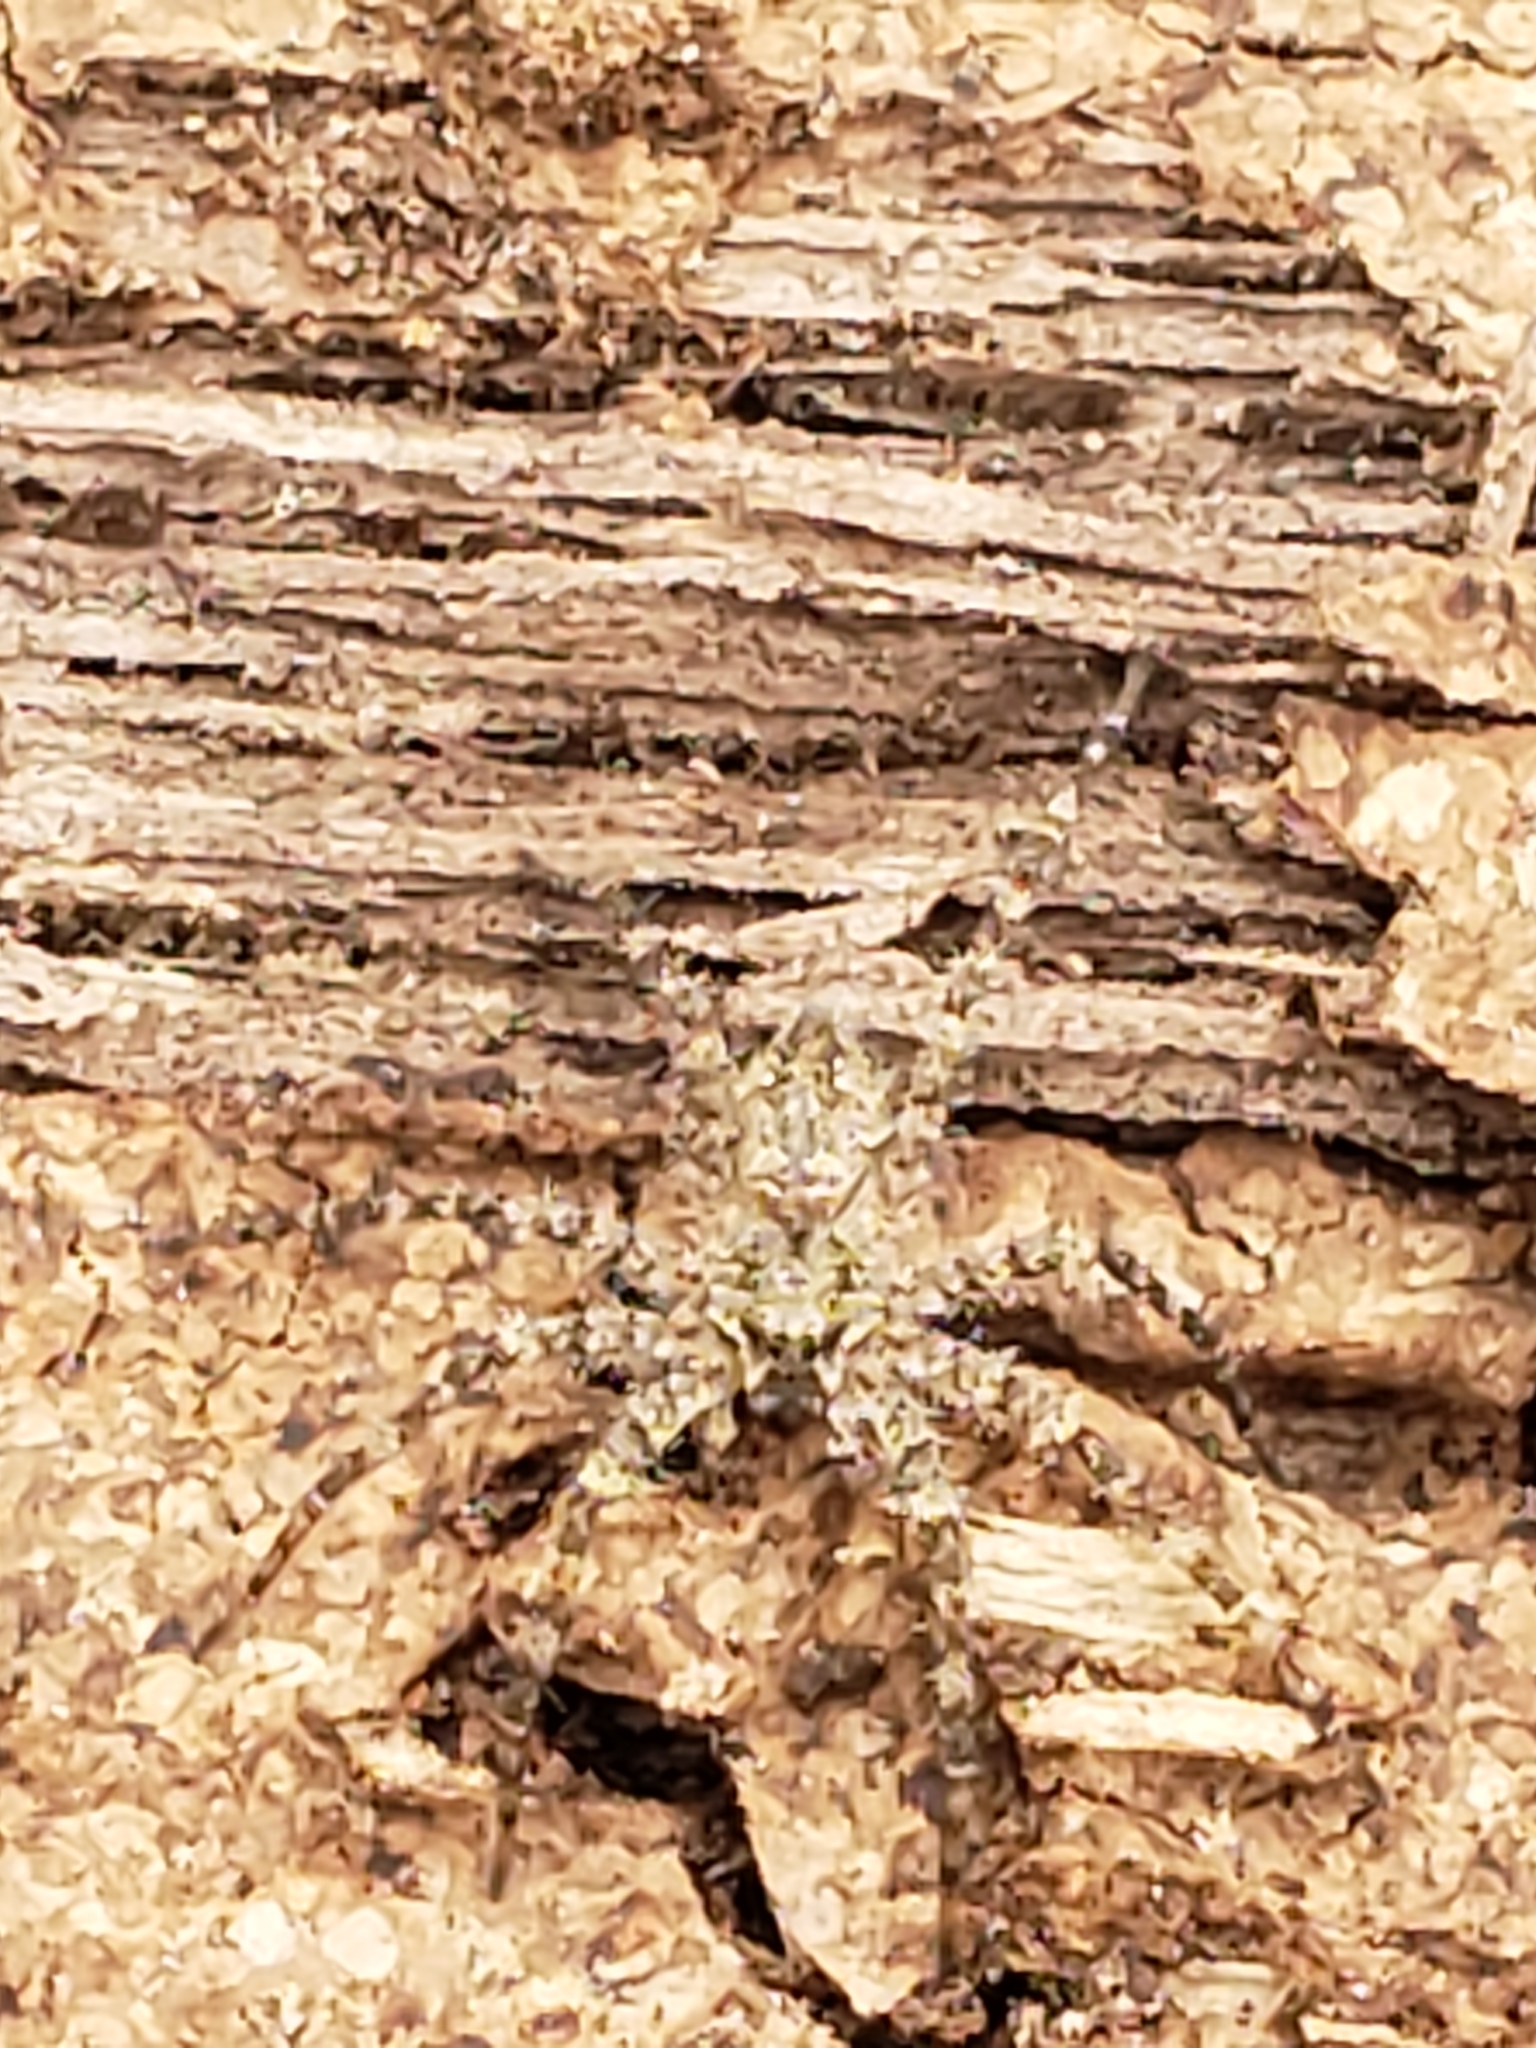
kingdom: Animalia
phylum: Arthropoda
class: Arachnida
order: Araneae
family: Pisauridae
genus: Dolomedes
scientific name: Dolomedes albineus
